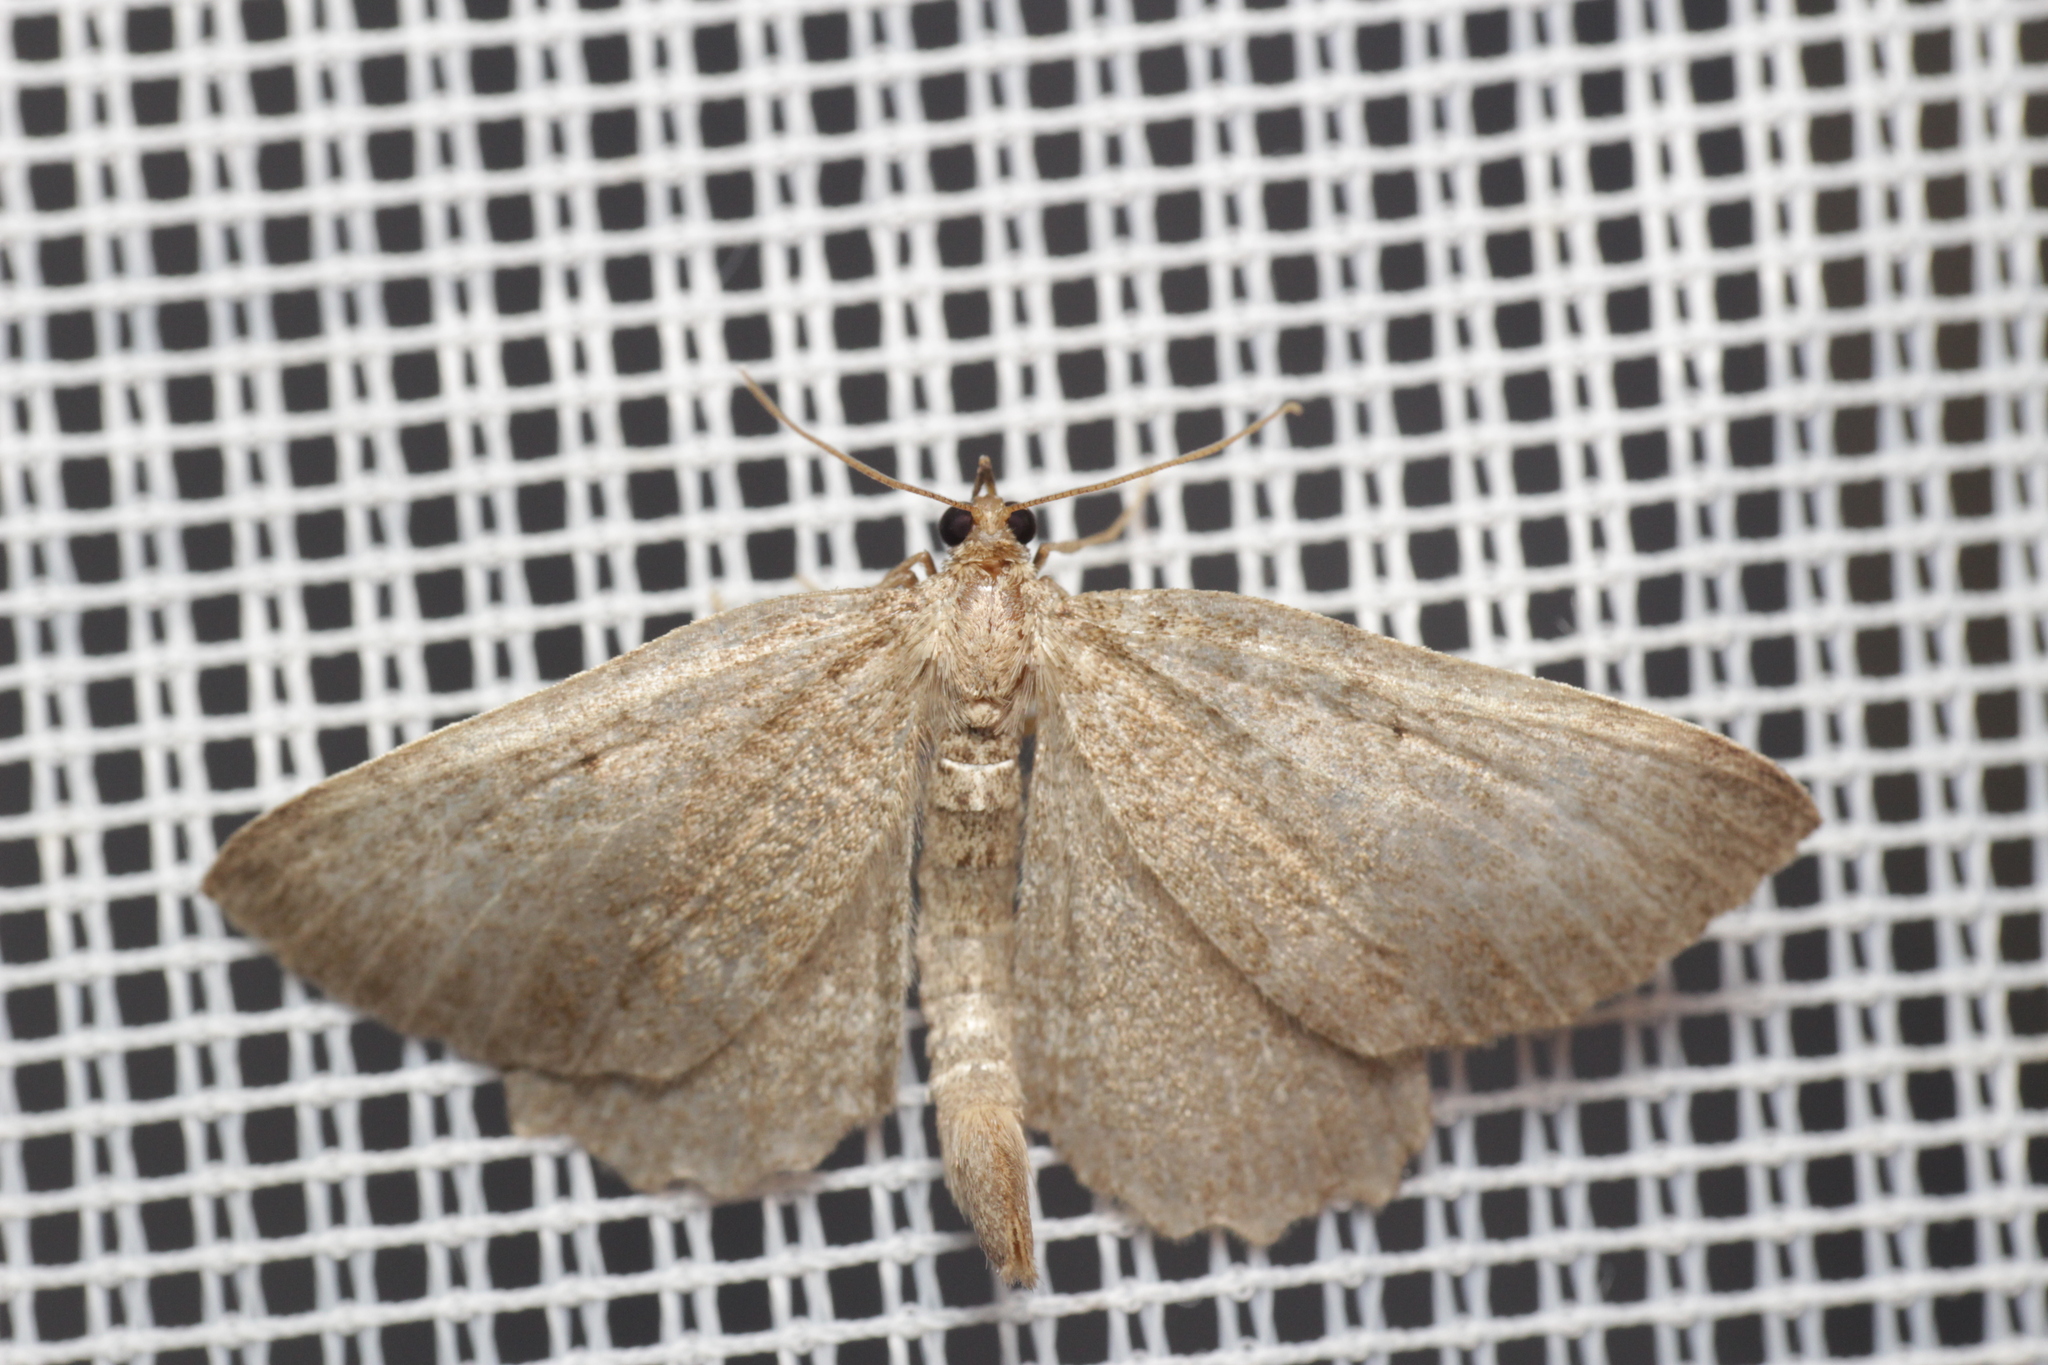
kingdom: Animalia
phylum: Arthropoda
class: Insecta
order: Lepidoptera
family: Geometridae
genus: Philereme
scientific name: Philereme vetulata
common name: Brown scallop
